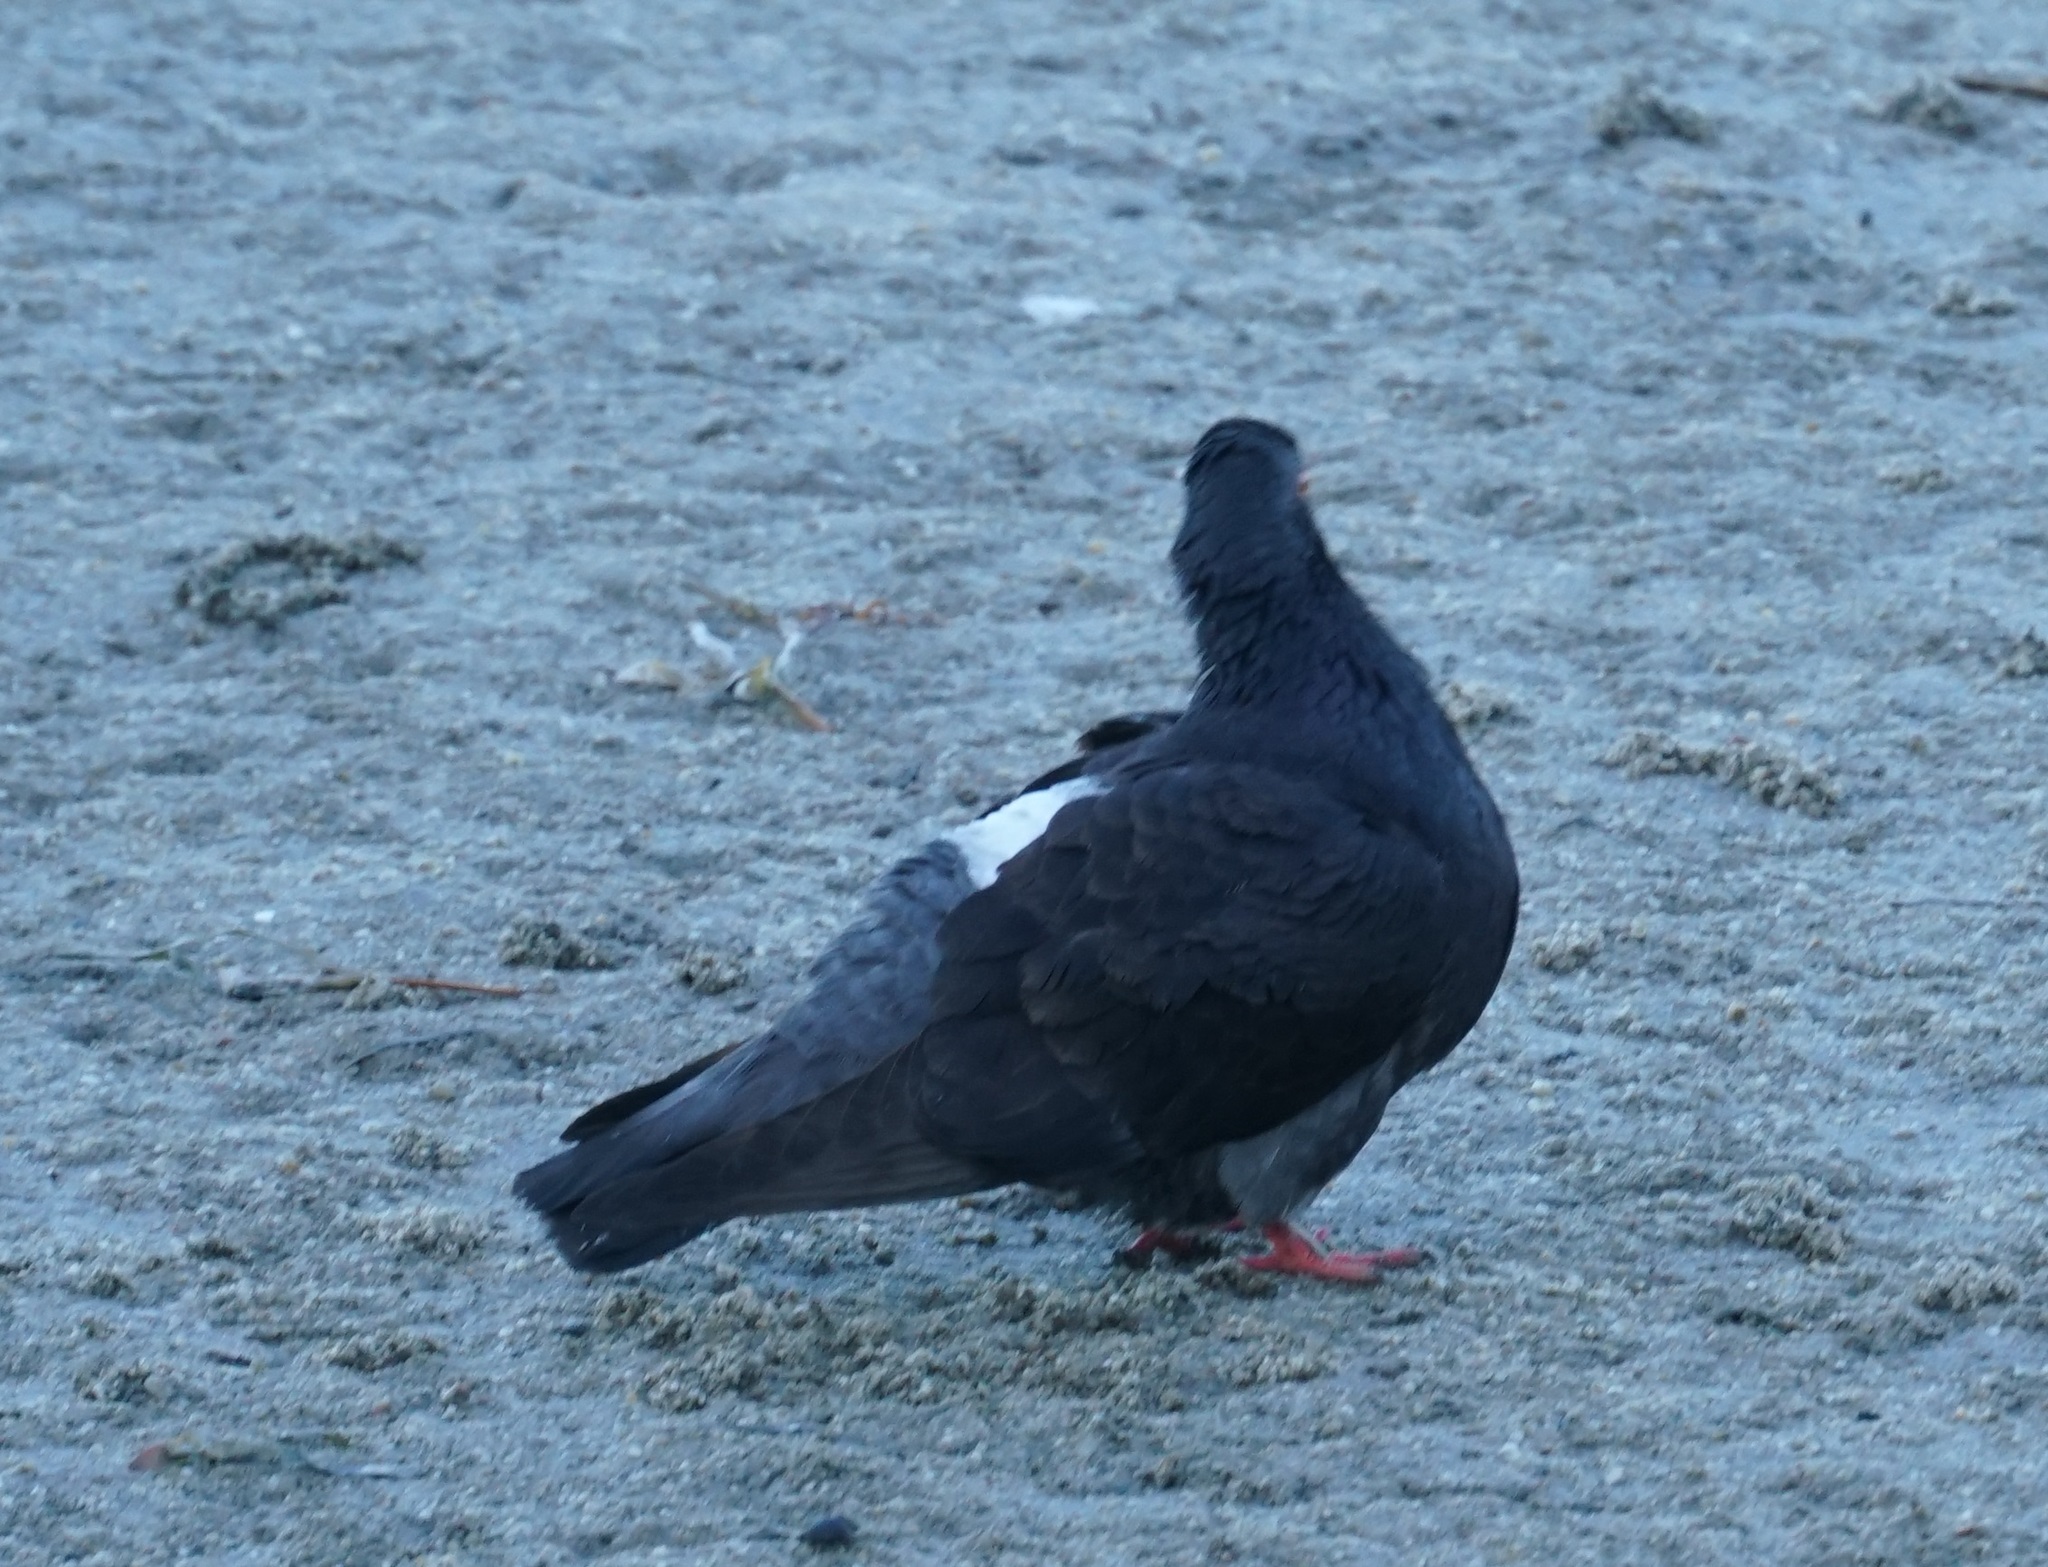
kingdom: Animalia
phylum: Chordata
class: Aves
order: Columbiformes
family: Columbidae
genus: Columba
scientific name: Columba livia
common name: Rock pigeon
